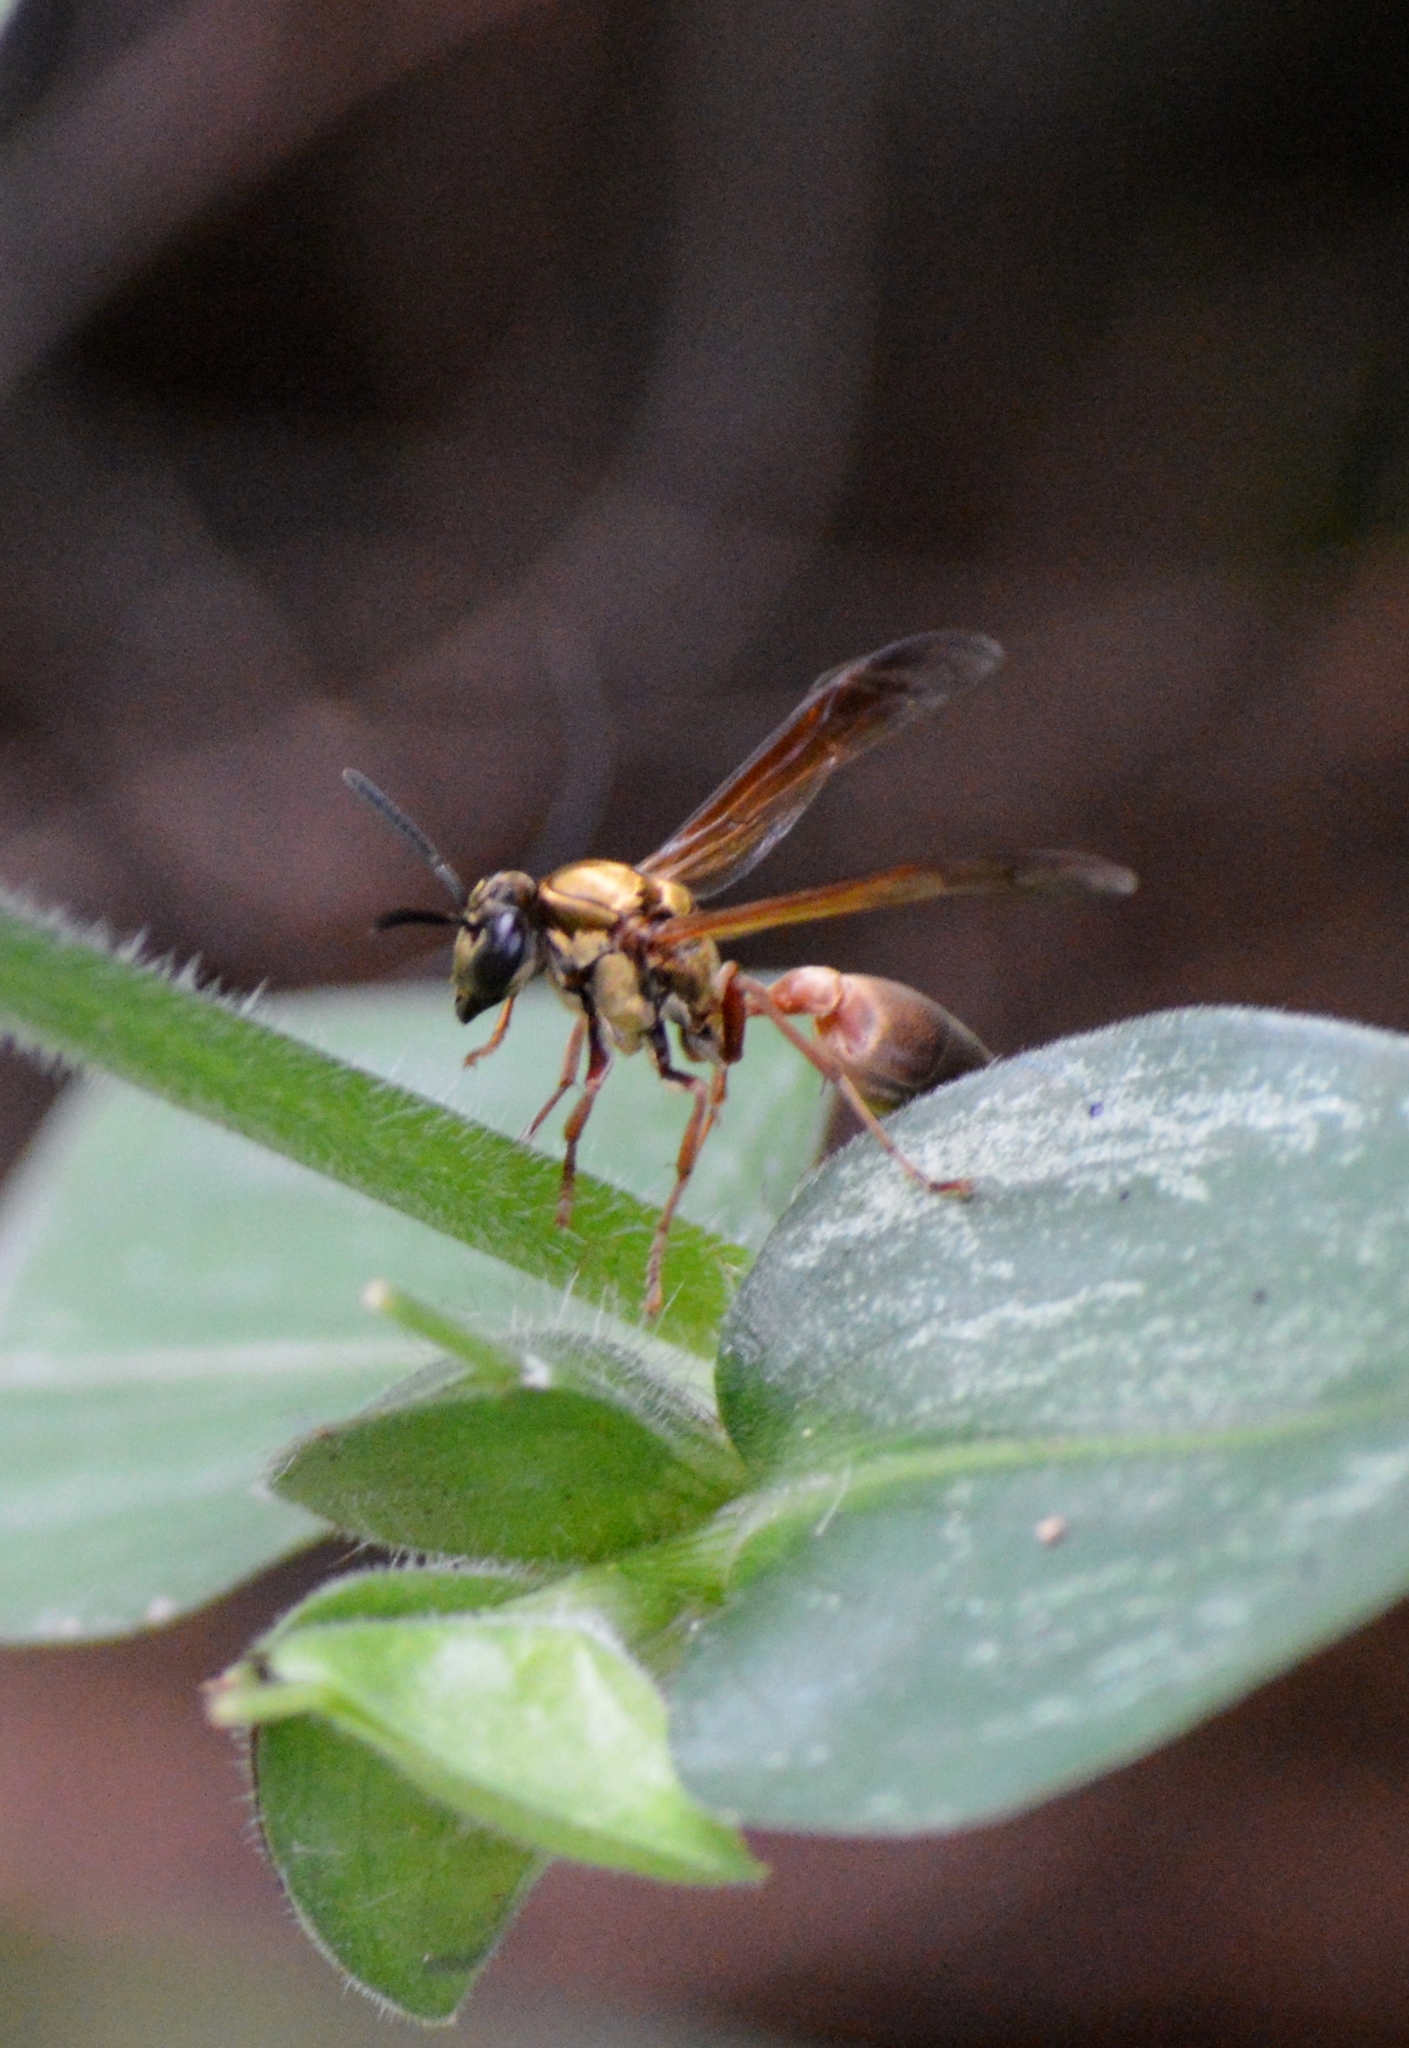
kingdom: Animalia
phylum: Arthropoda
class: Insecta
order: Hymenoptera
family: Eumenidae
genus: Polybia
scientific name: Polybia chrysothorax
